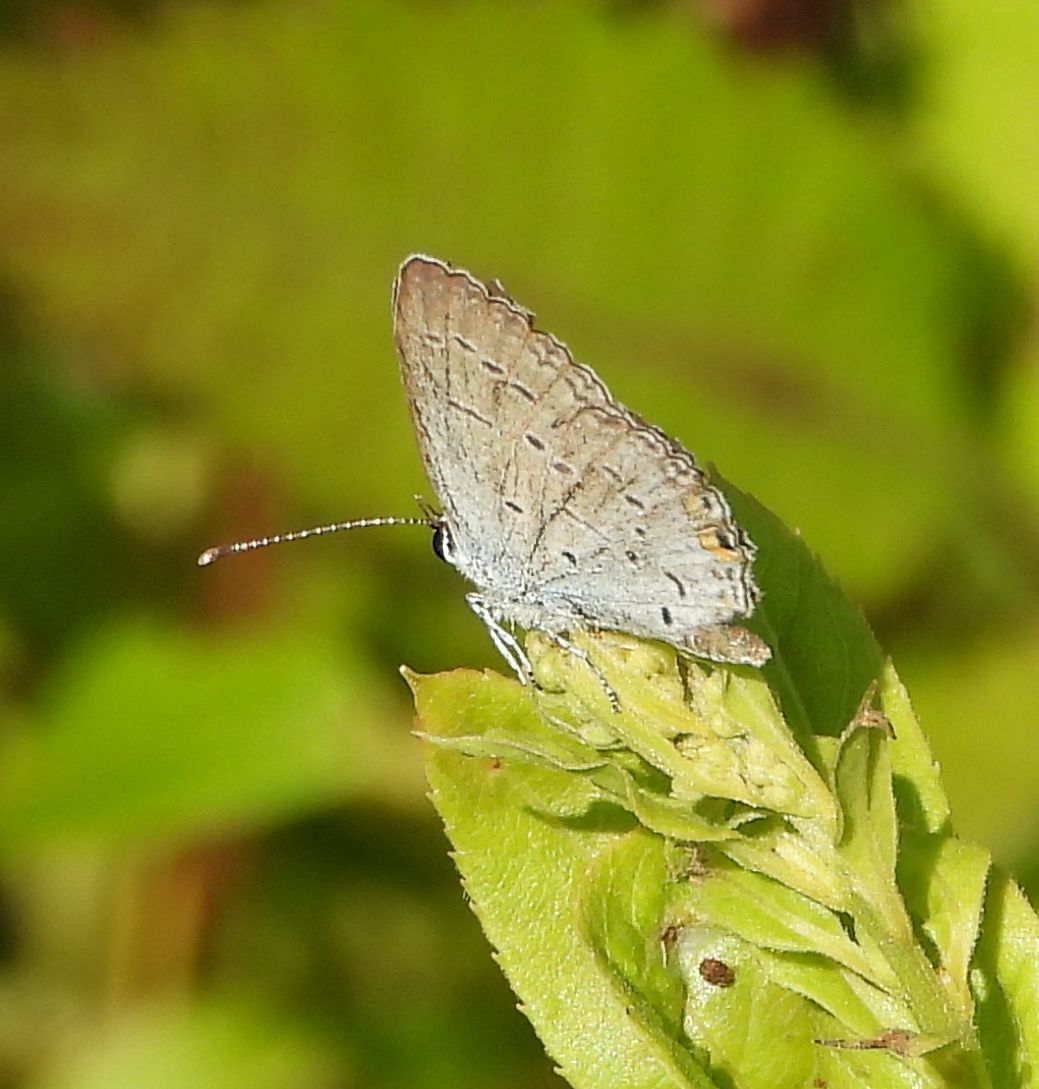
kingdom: Animalia
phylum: Arthropoda
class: Insecta
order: Lepidoptera
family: Lycaenidae
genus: Elkalyce
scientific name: Elkalyce comyntas
